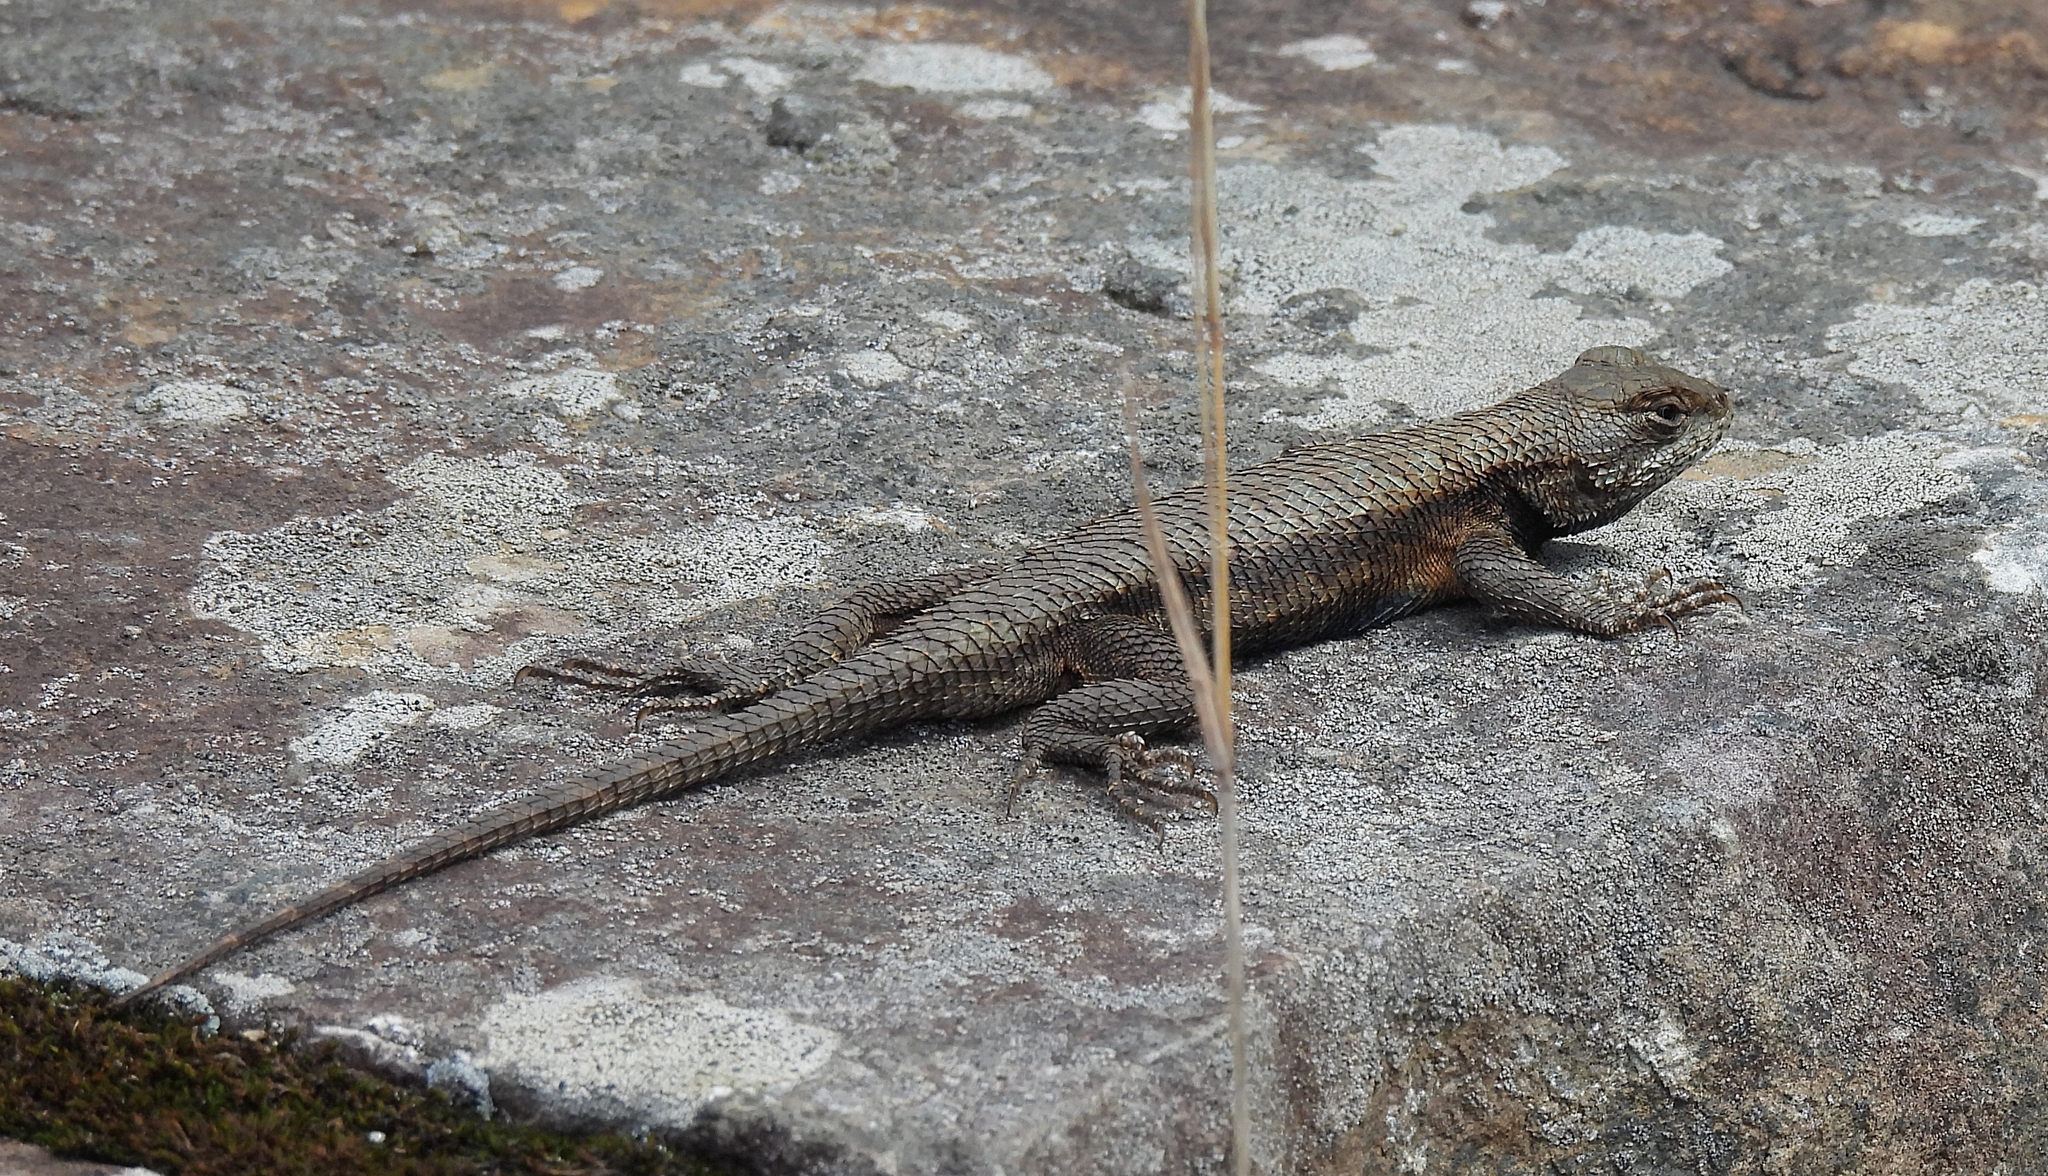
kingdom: Animalia
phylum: Chordata
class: Squamata
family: Phrynosomatidae
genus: Sceloporus
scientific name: Sceloporus undulatus
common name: Eastern fence lizard
